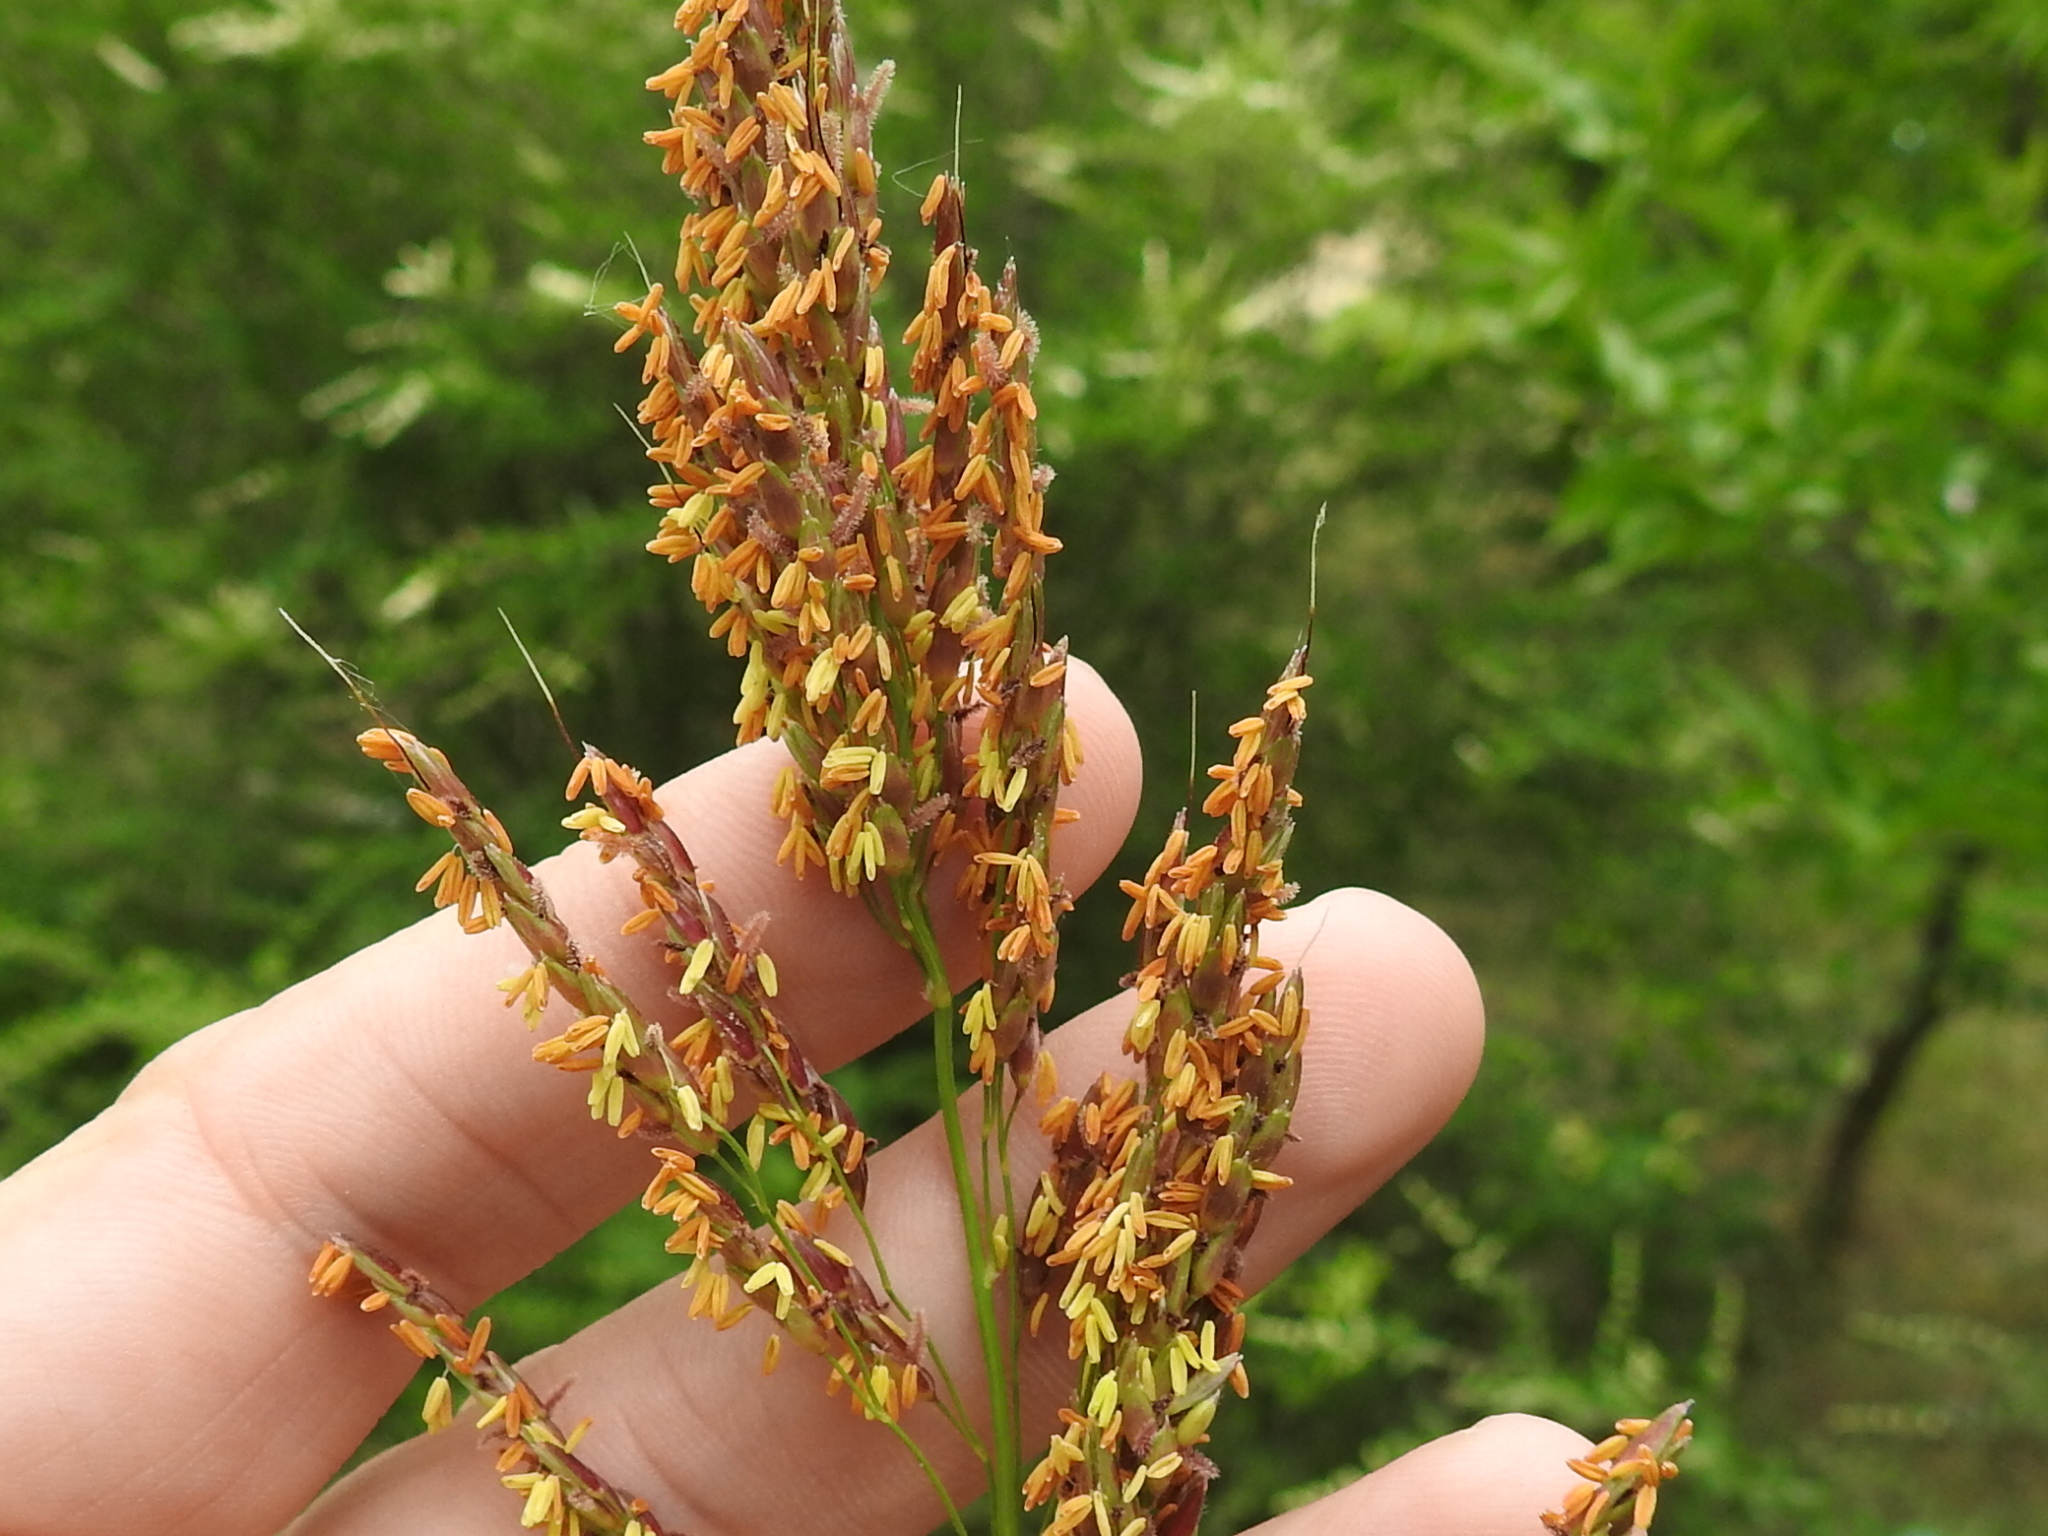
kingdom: Plantae
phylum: Tracheophyta
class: Liliopsida
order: Poales
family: Poaceae
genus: Sorghum
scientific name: Sorghum halepense
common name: Johnson-grass
